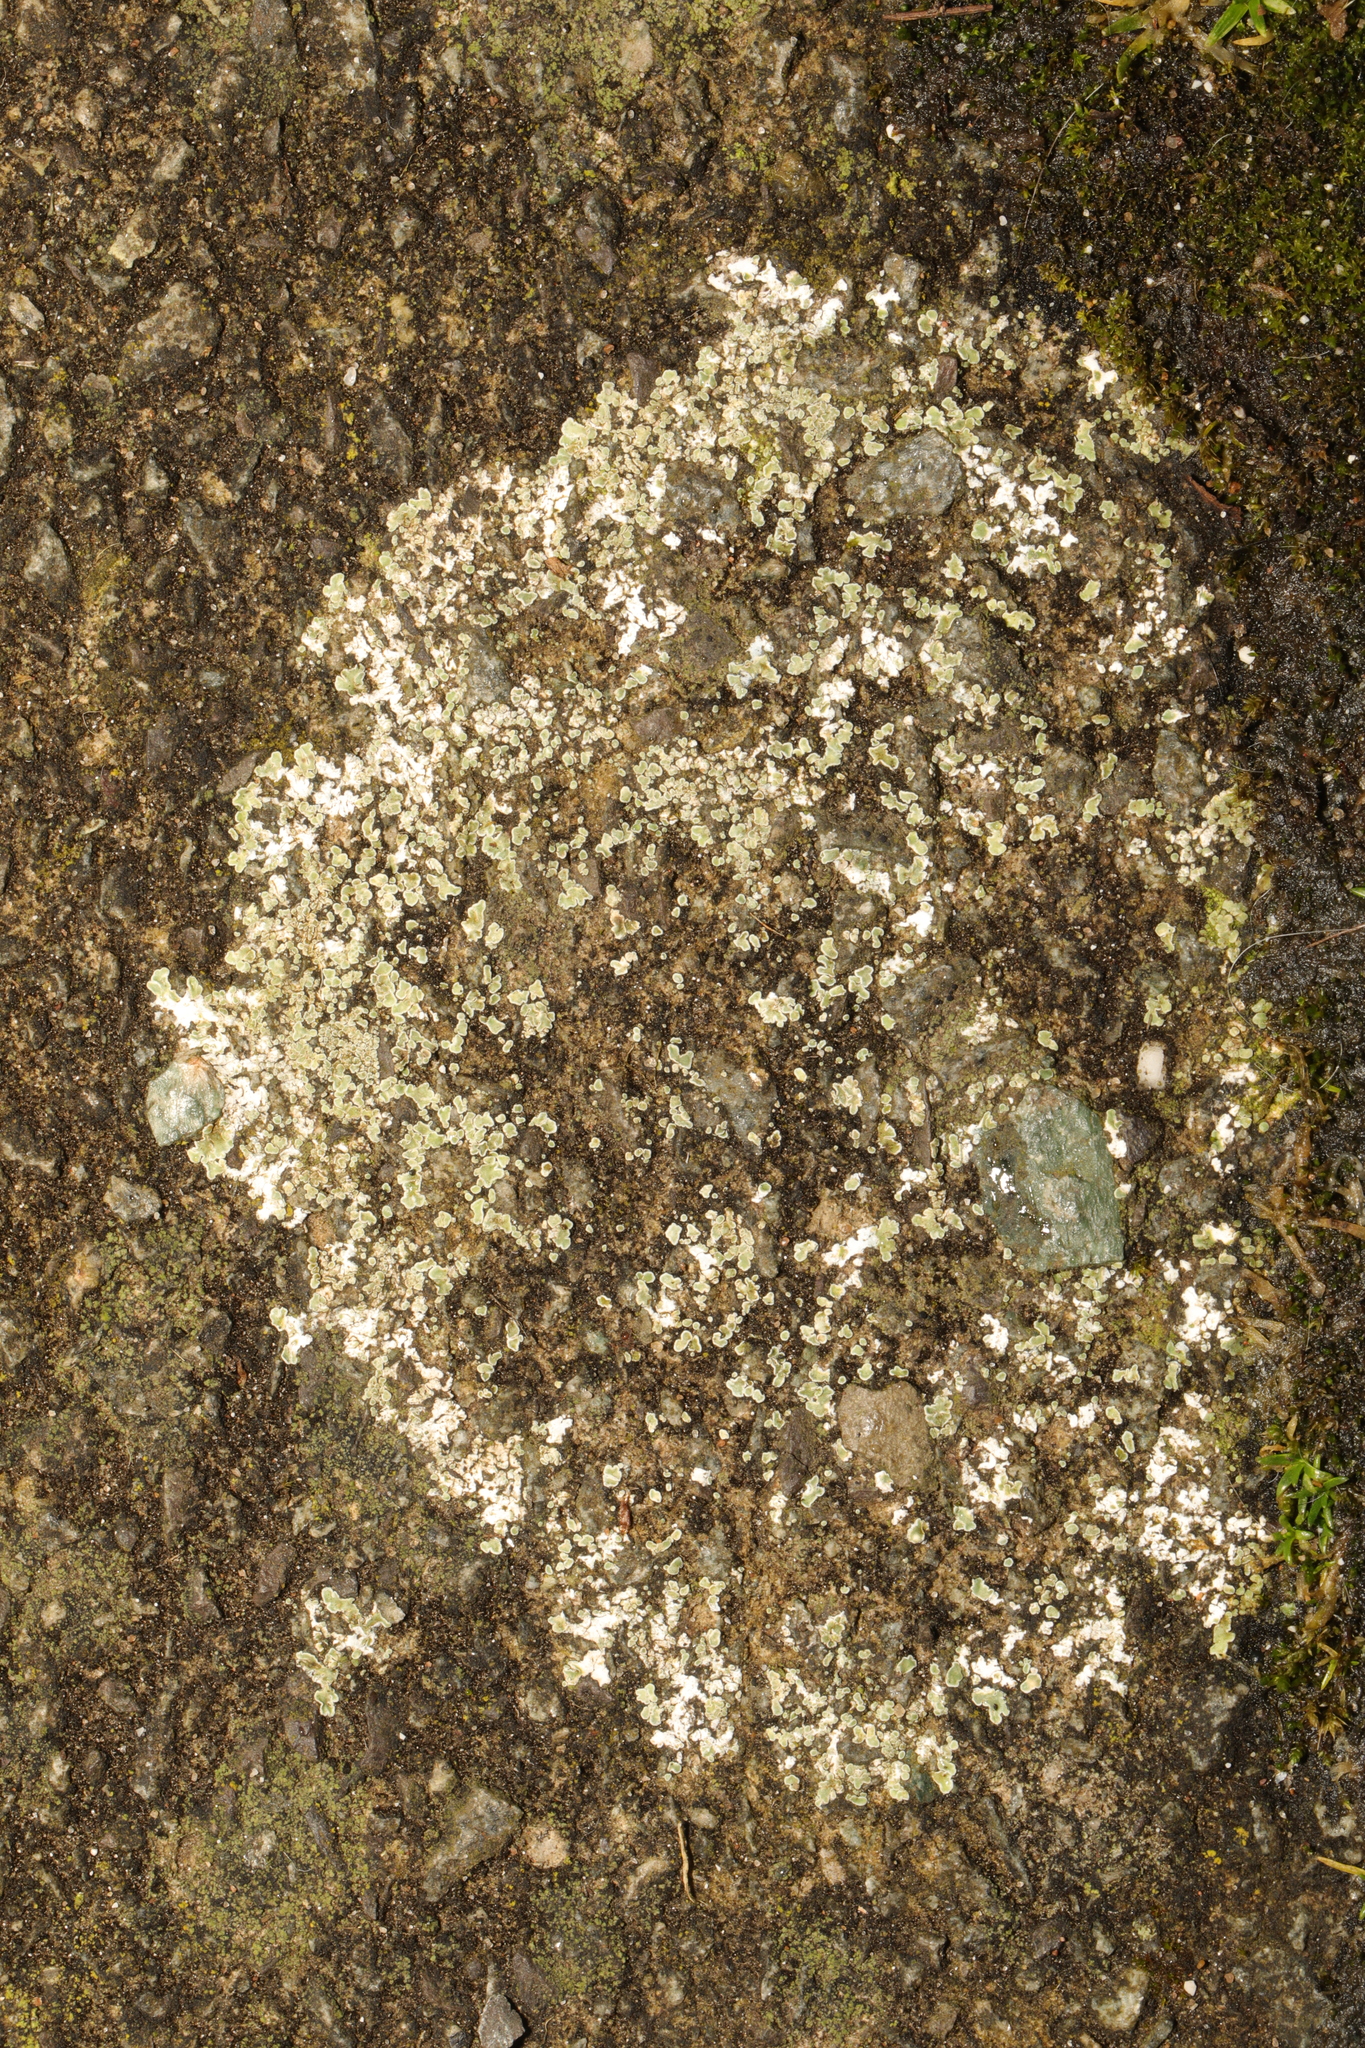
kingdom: Fungi
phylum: Ascomycota
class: Lecanoromycetes
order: Lecanorales
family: Lecanoraceae
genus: Protoparmeliopsis
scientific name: Protoparmeliopsis muralis
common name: Stonewall rim lichen
